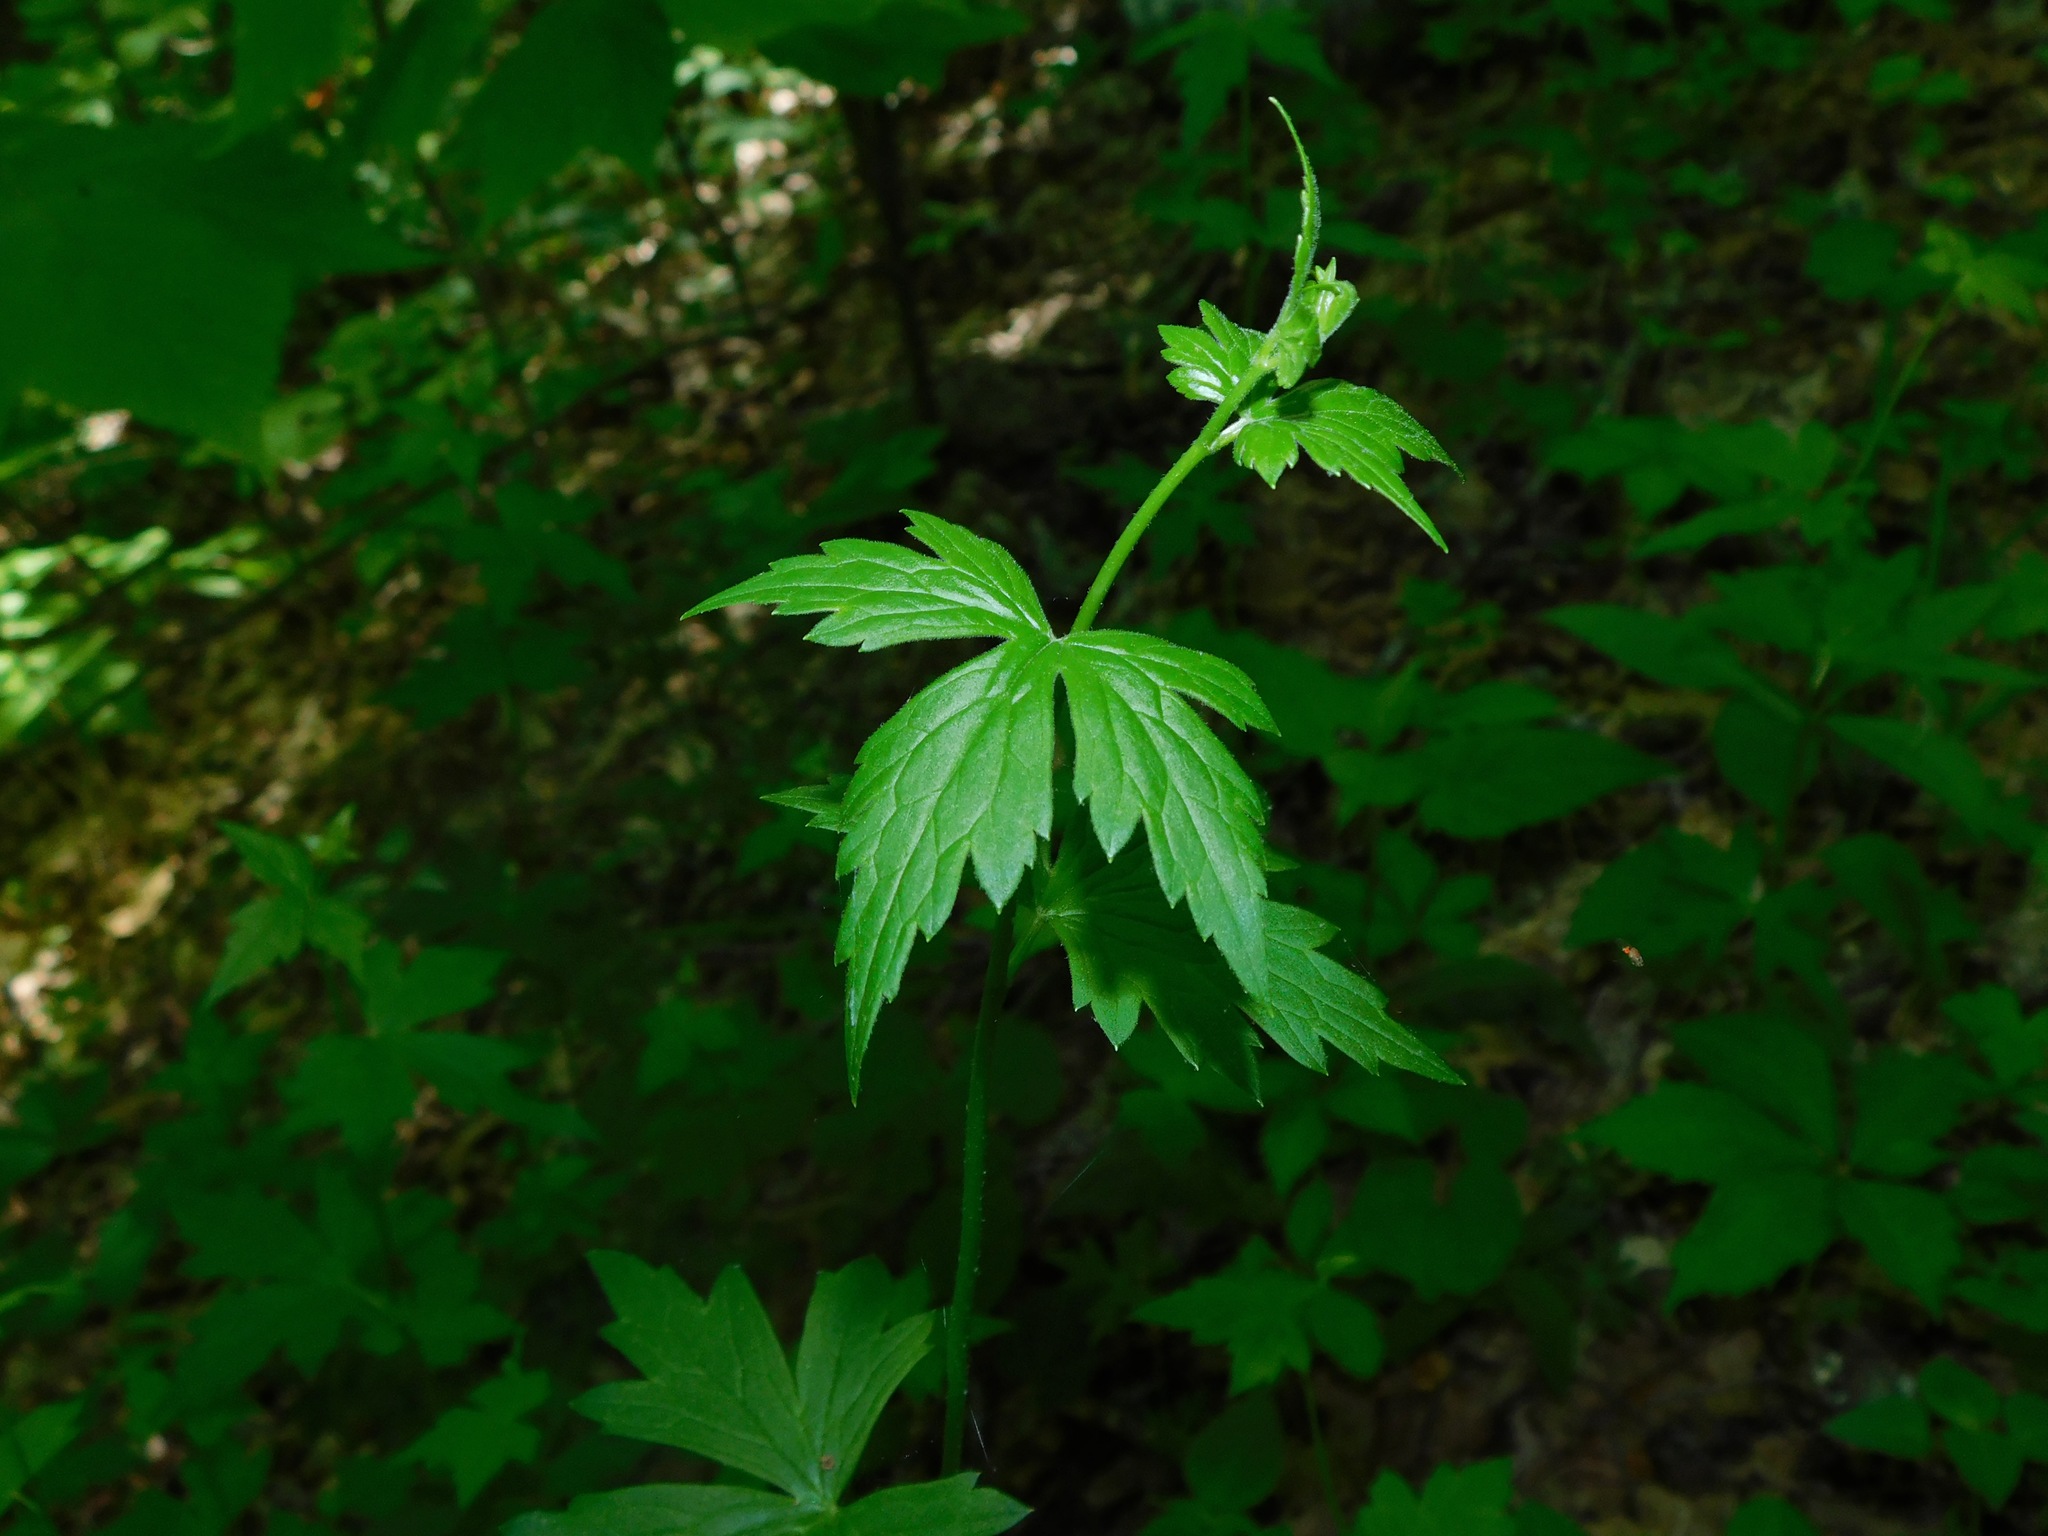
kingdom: Plantae
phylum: Tracheophyta
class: Magnoliopsida
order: Ranunculales
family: Ranunculaceae
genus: Aconitum
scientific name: Aconitum reclinatum
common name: Trailing wolfsbane
